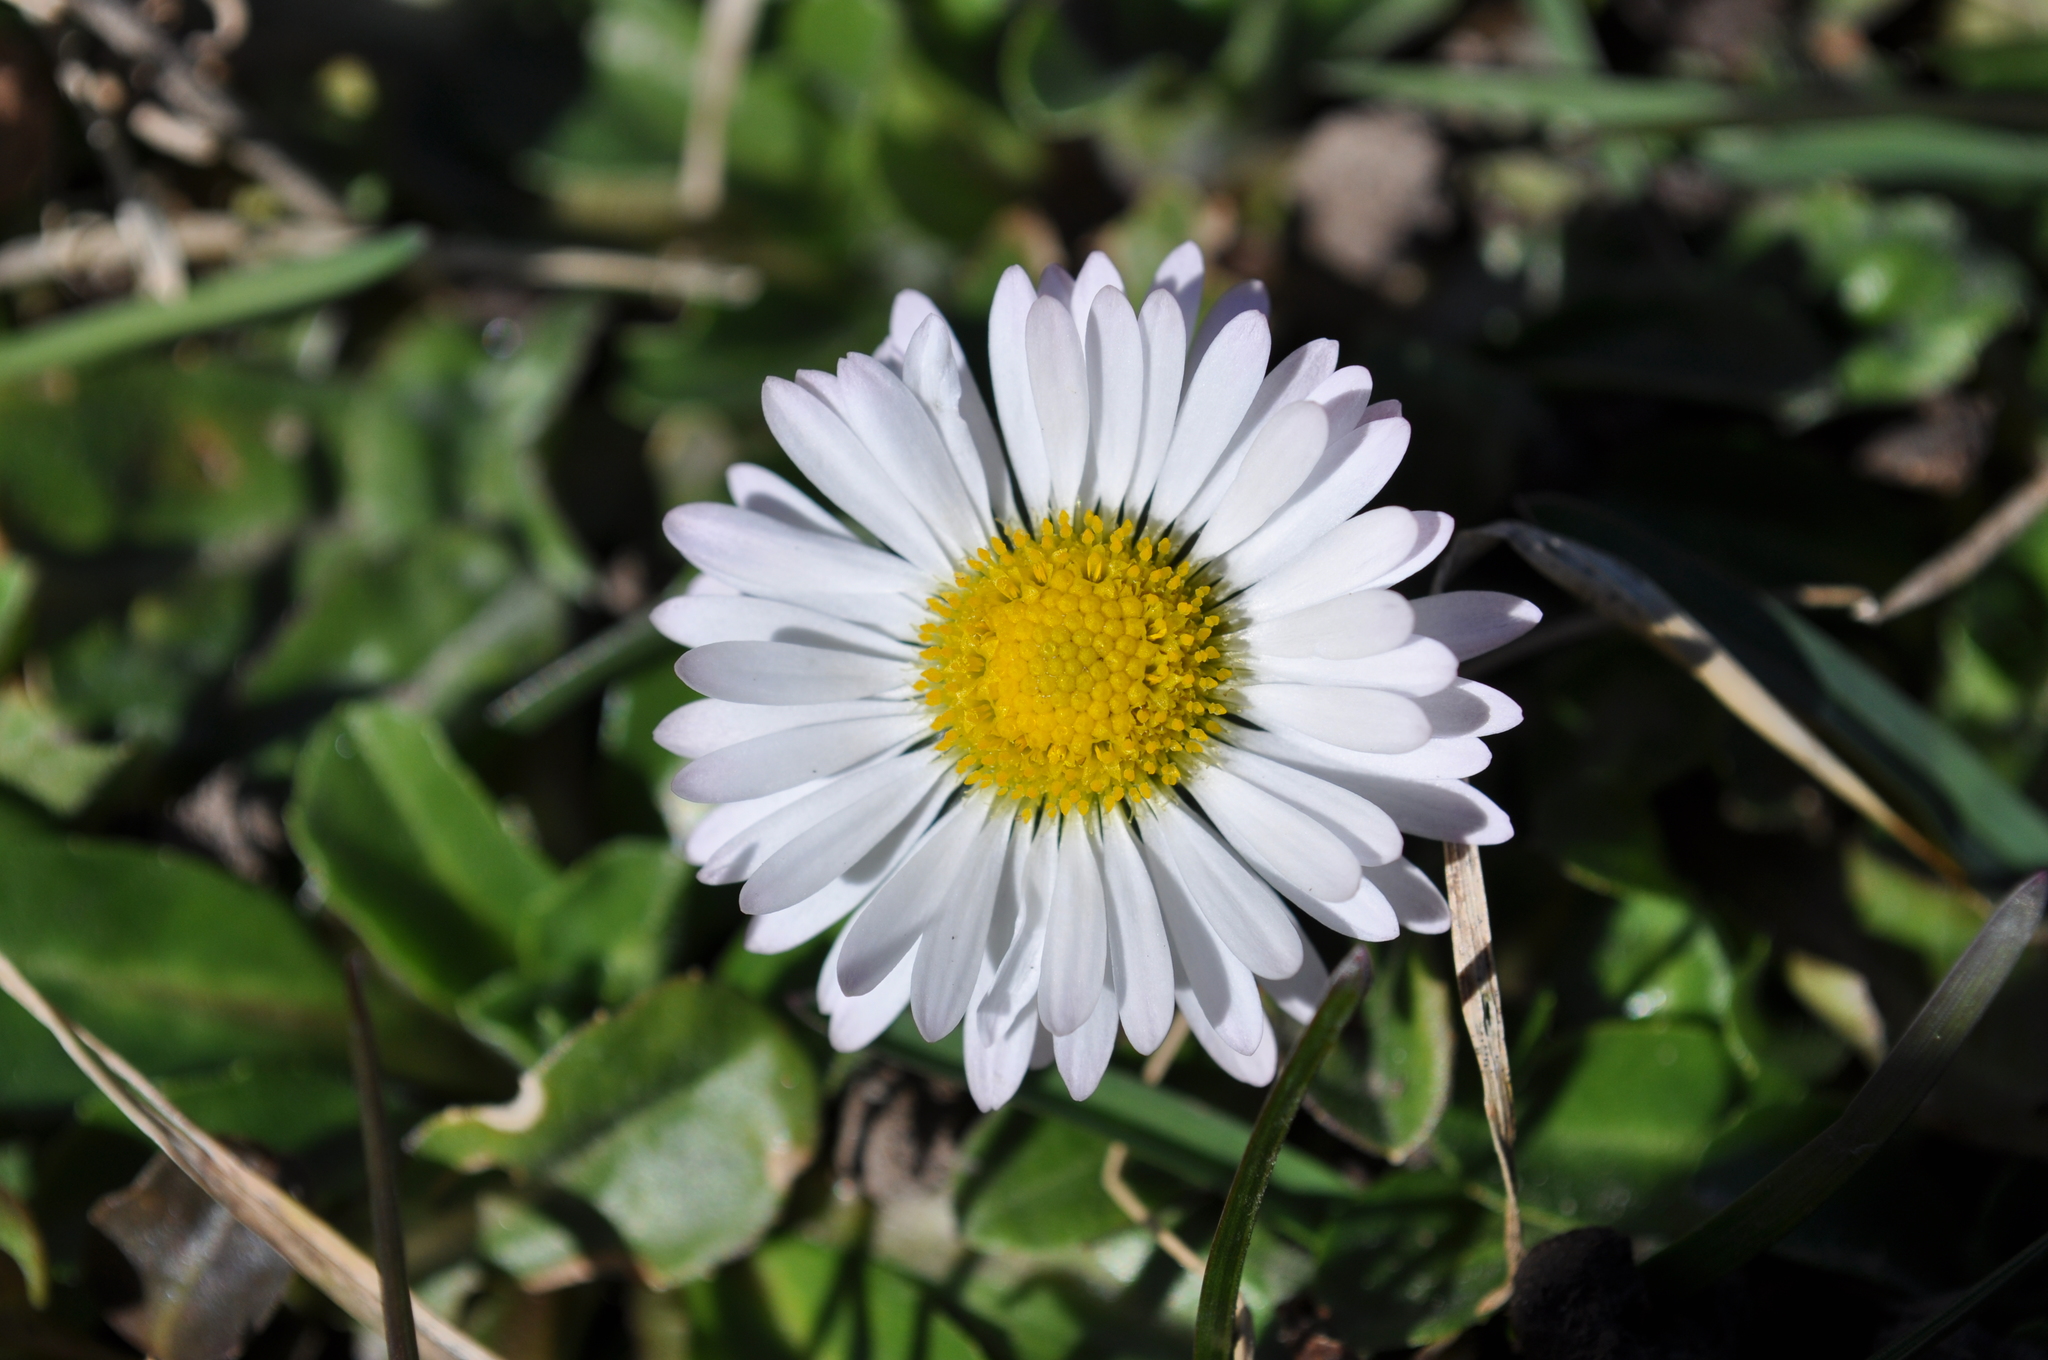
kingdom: Plantae
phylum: Tracheophyta
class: Magnoliopsida
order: Asterales
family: Asteraceae
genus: Bellis
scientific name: Bellis perennis
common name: Lawndaisy
